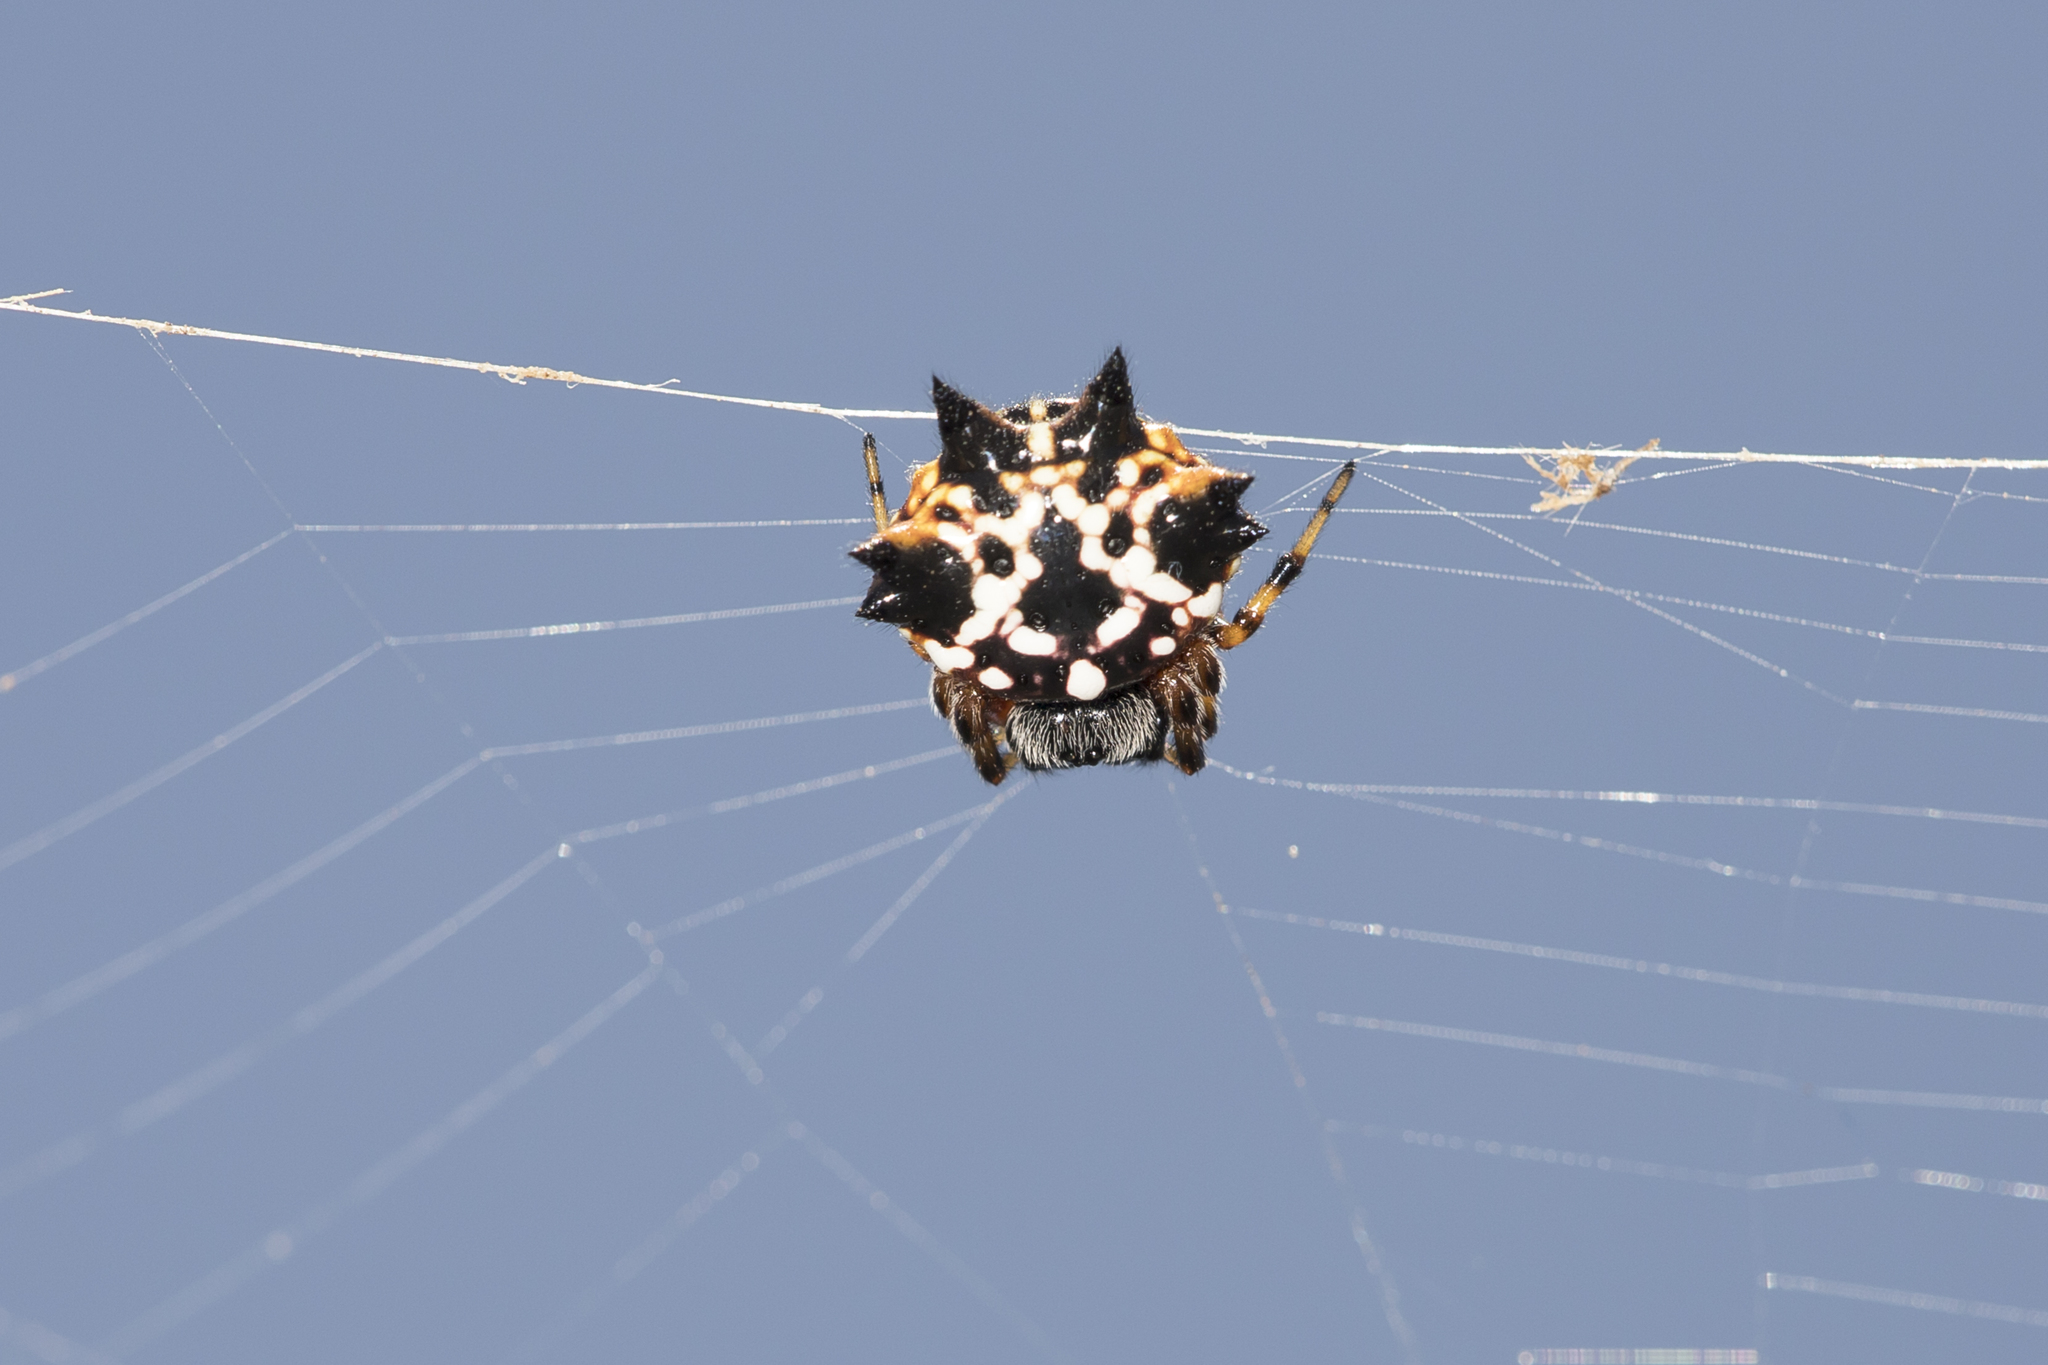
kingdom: Animalia
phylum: Arthropoda
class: Arachnida
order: Araneae
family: Araneidae
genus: Austracantha
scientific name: Austracantha minax
